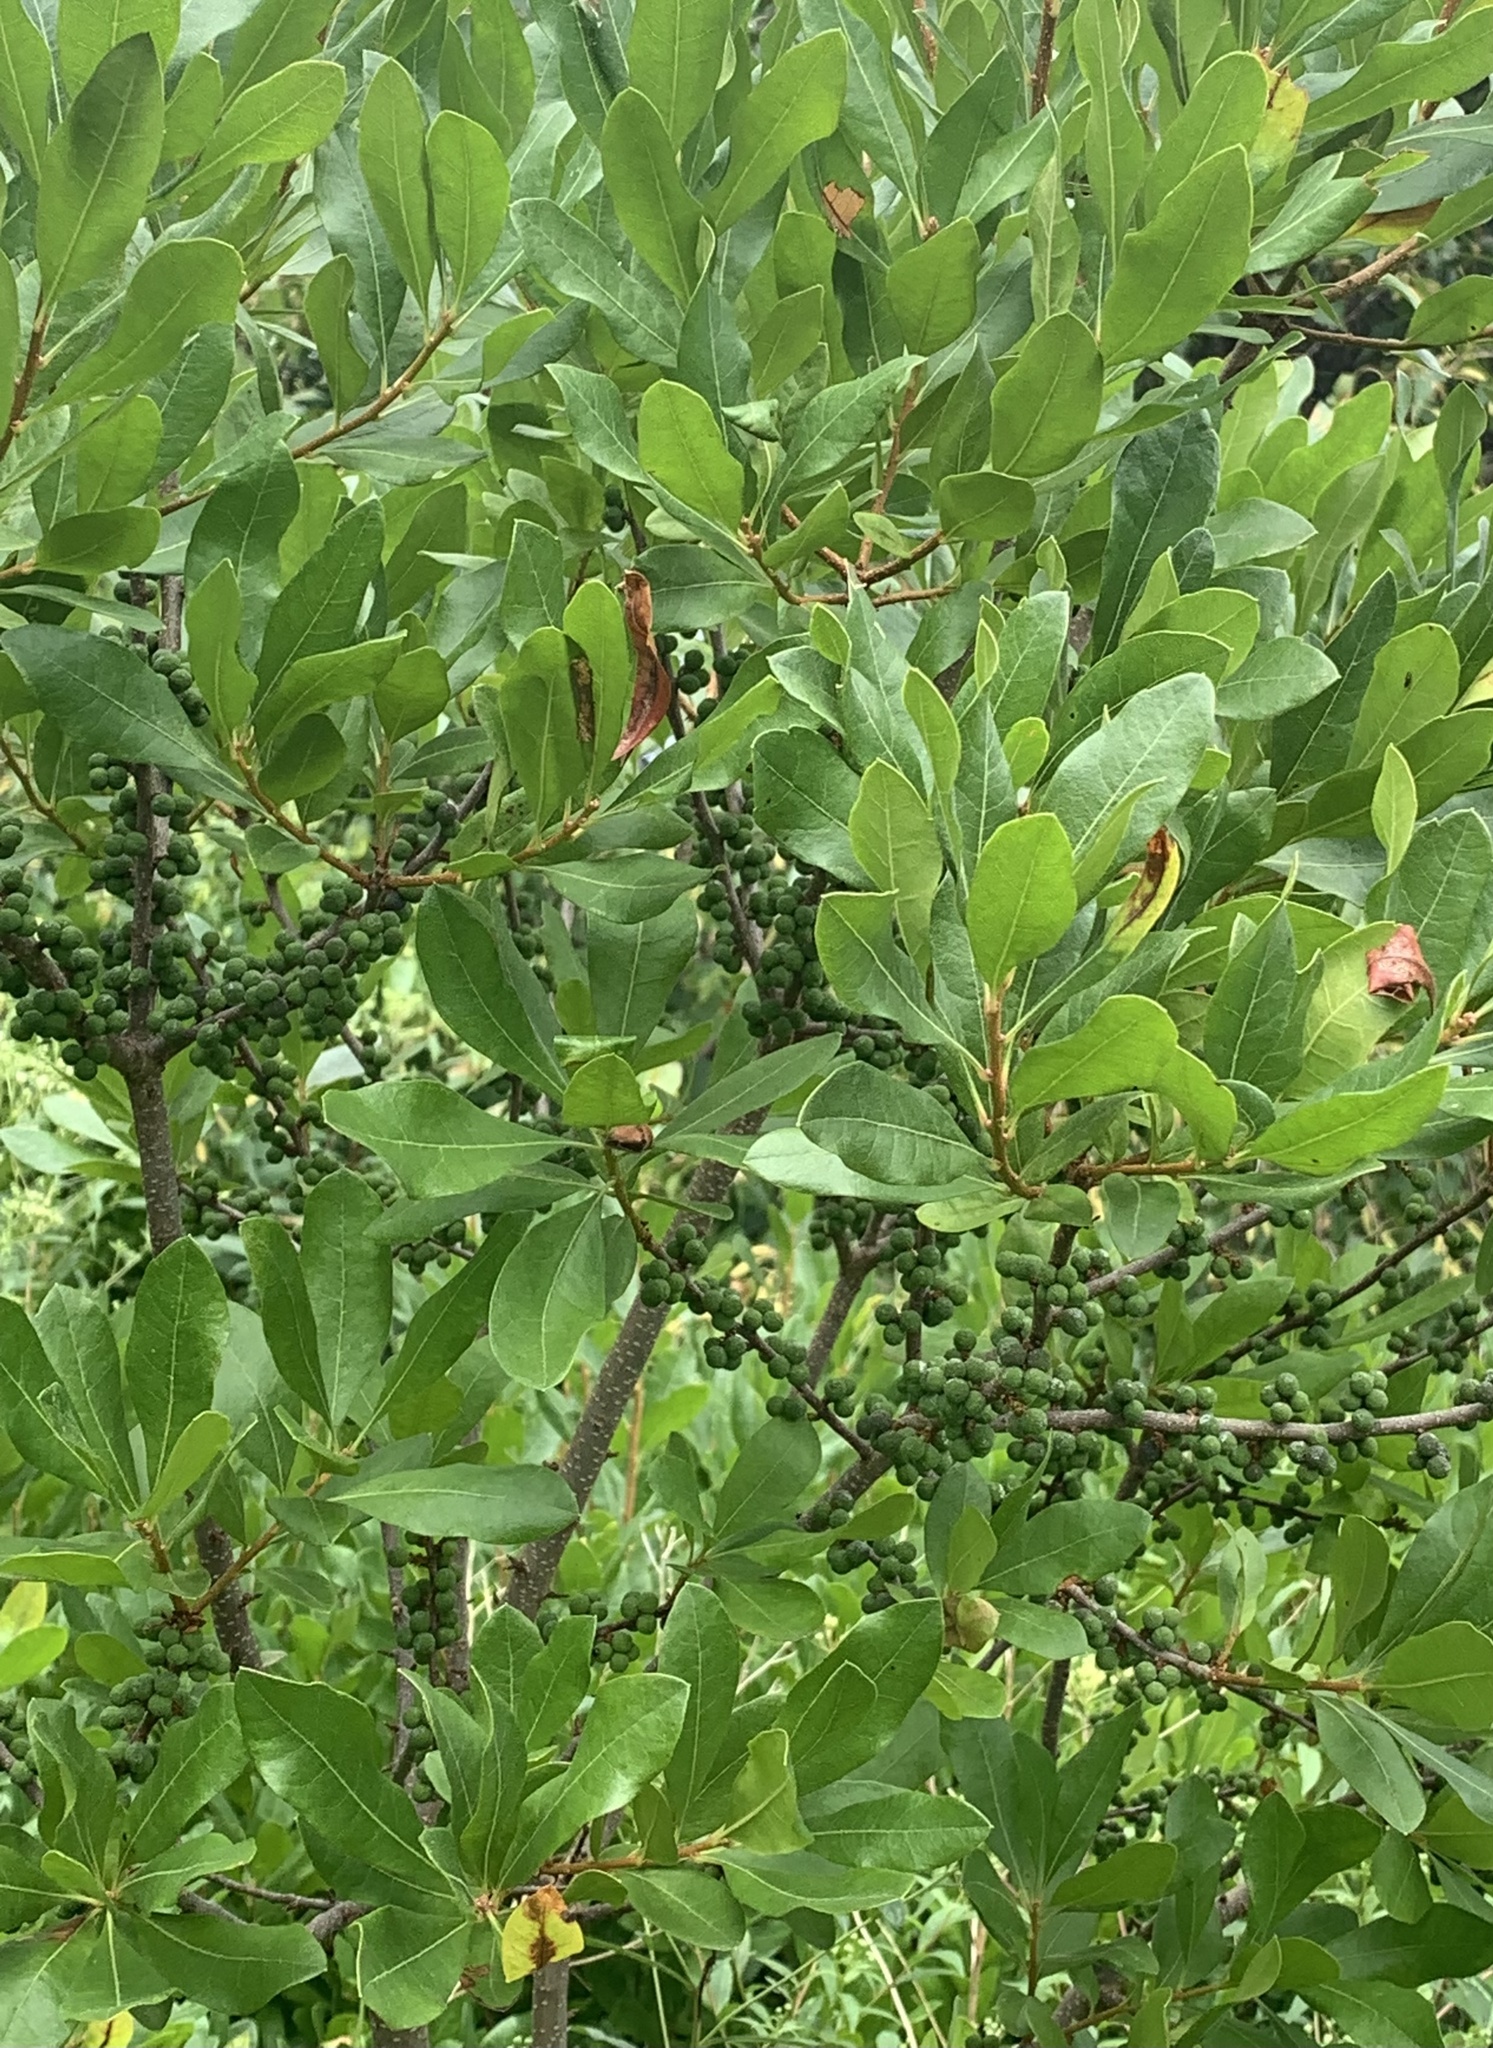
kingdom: Plantae
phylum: Tracheophyta
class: Magnoliopsida
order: Fagales
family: Myricaceae
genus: Morella
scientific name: Morella pensylvanica
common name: Northern bayberry
